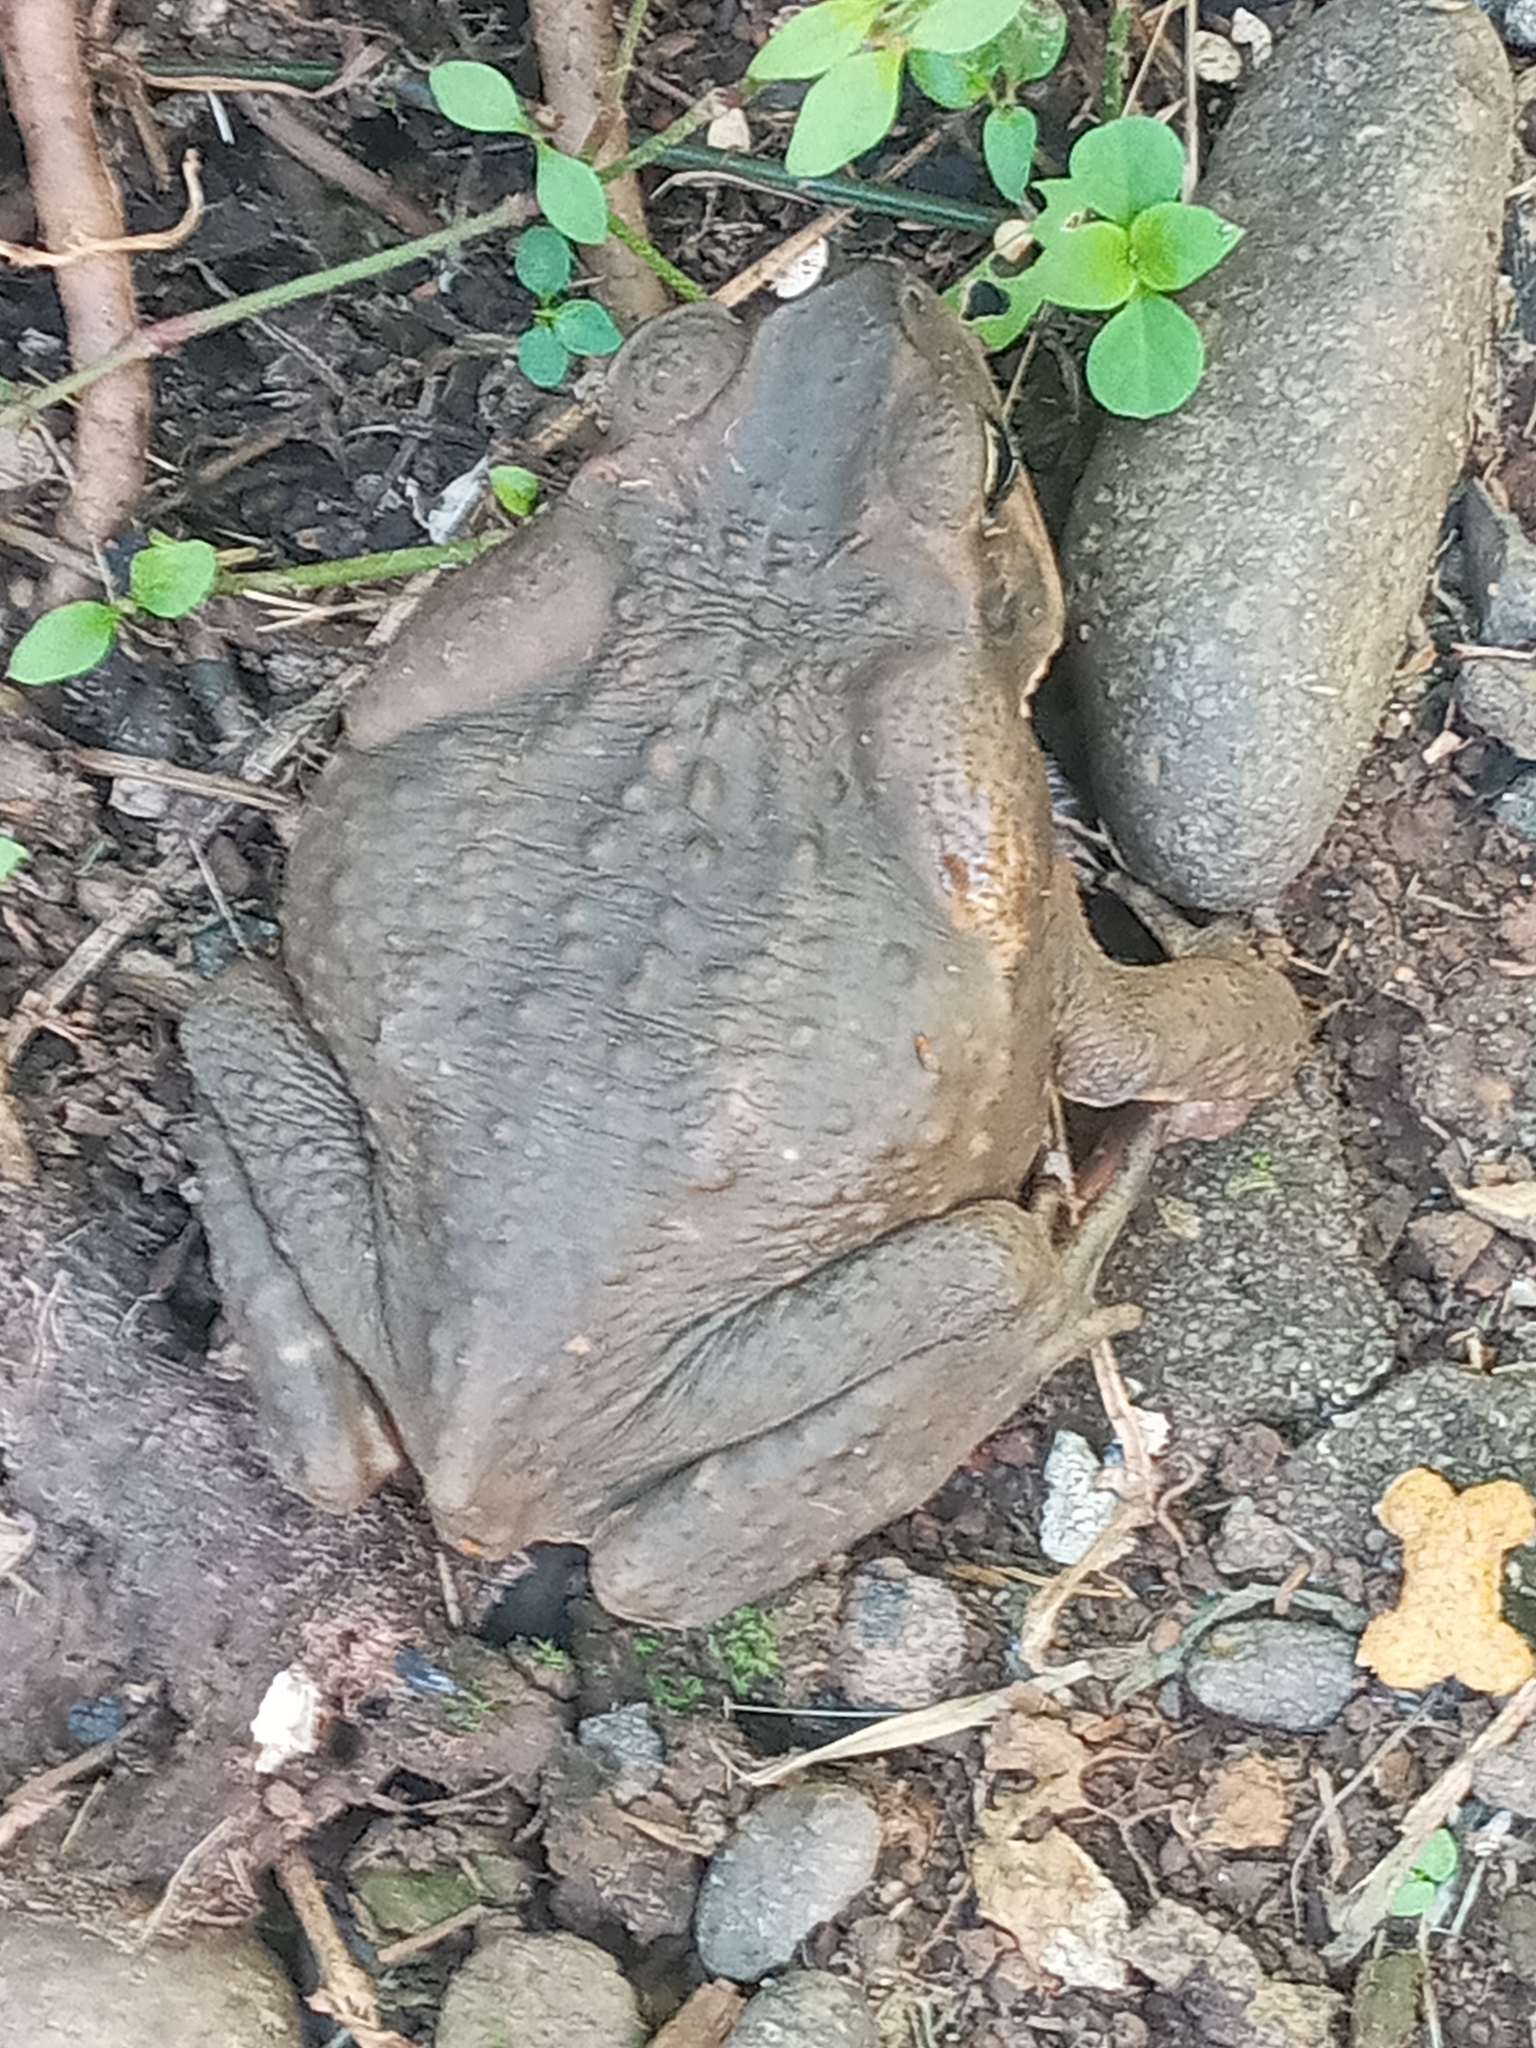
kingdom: Animalia
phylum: Chordata
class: Amphibia
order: Anura
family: Bufonidae
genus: Rhinella
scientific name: Rhinella horribilis
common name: Mesoamerican cane toad
